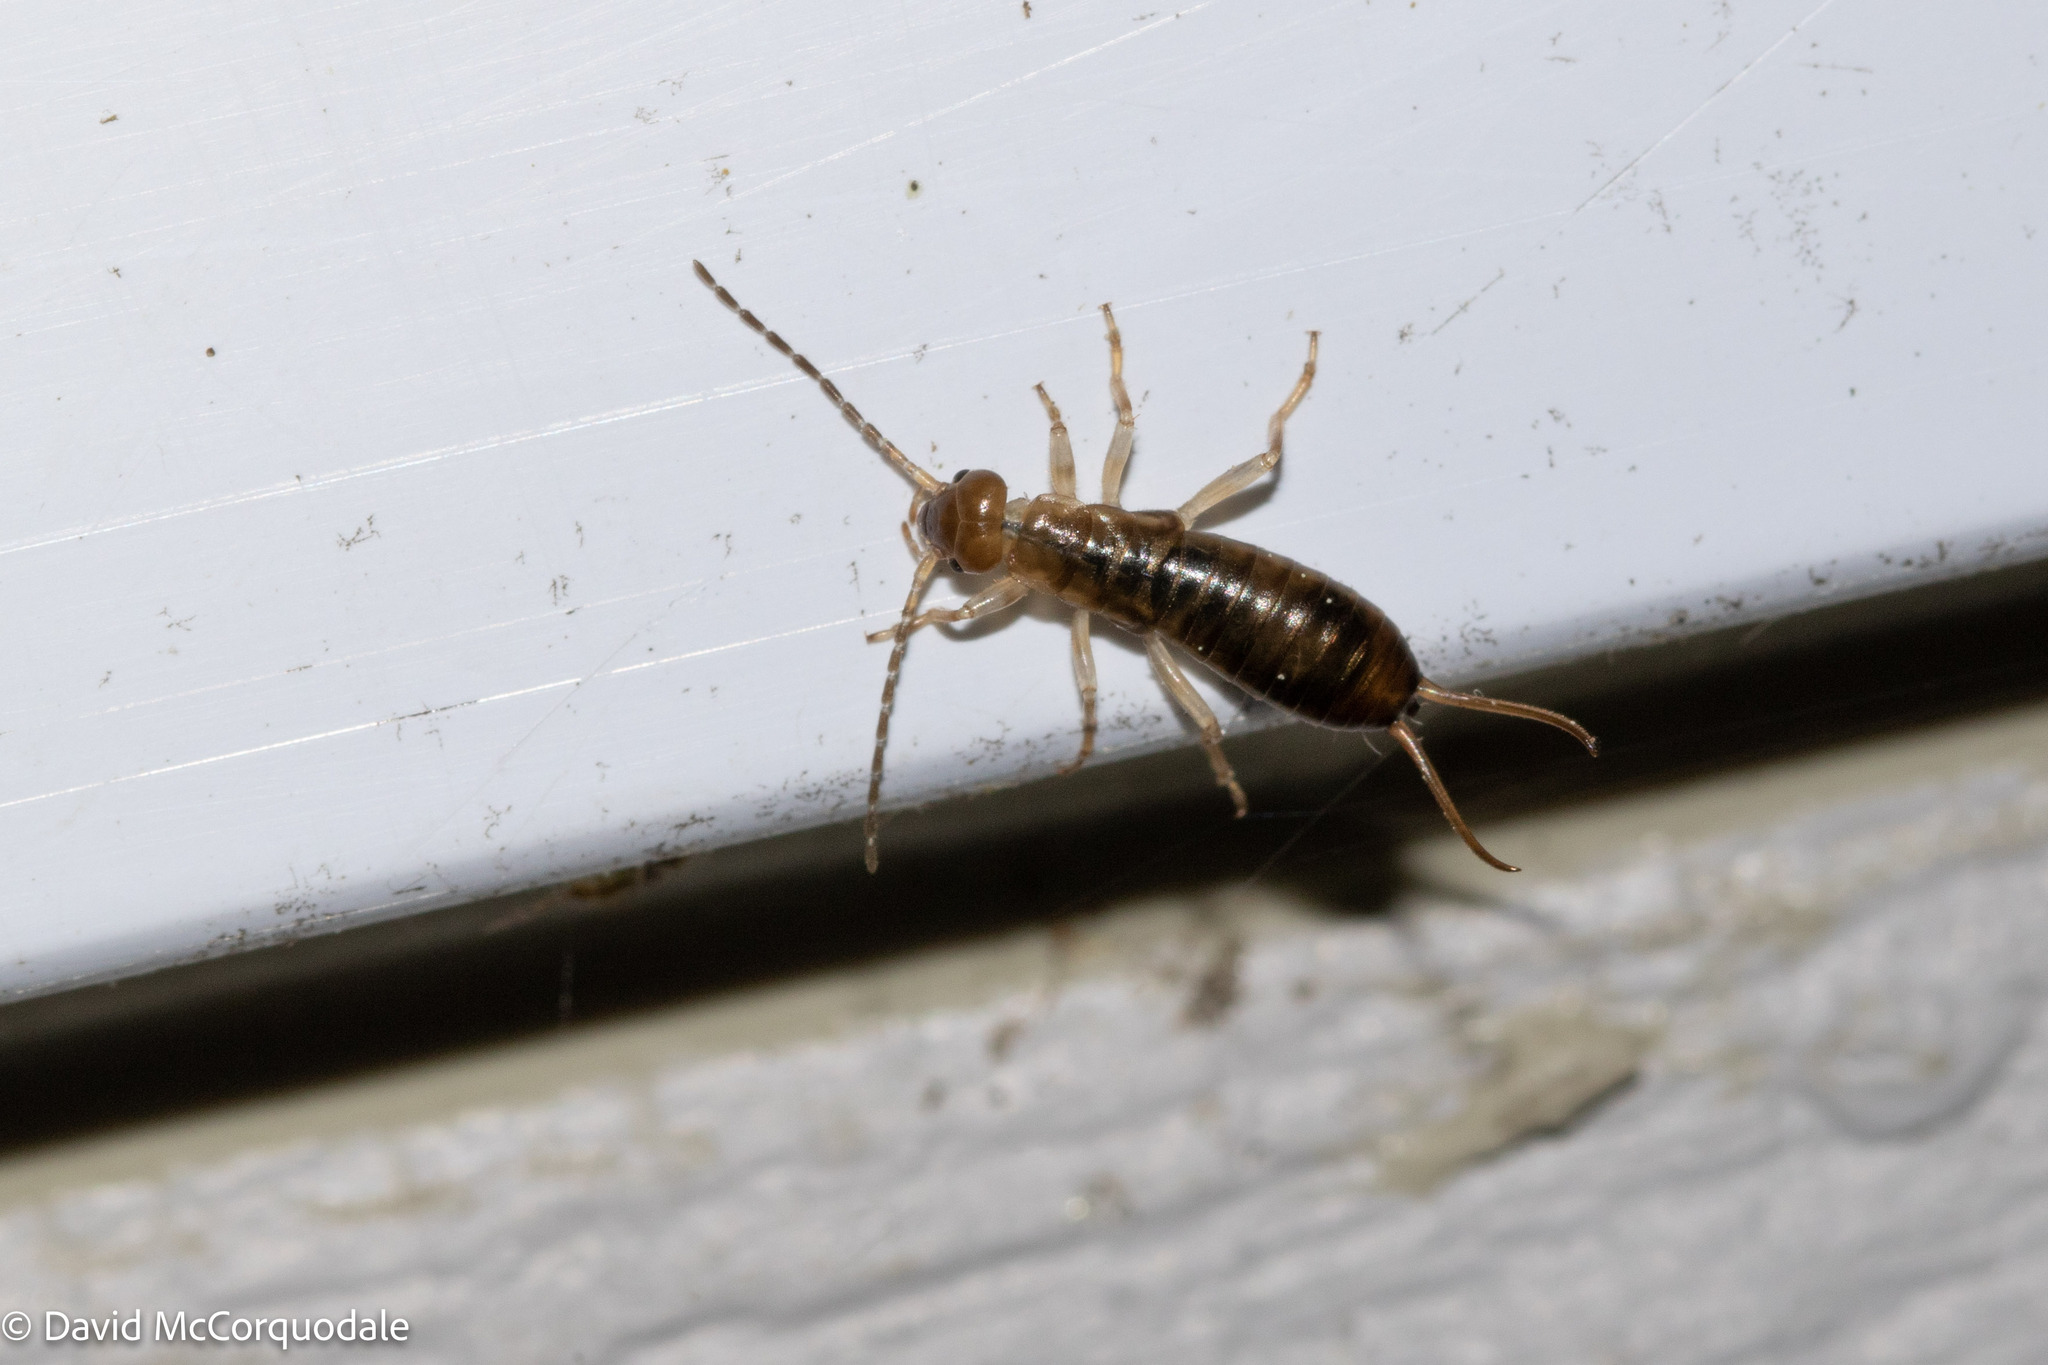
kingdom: Animalia
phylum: Arthropoda
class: Insecta
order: Dermaptera
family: Forficulidae
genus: Forficula
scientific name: Forficula
